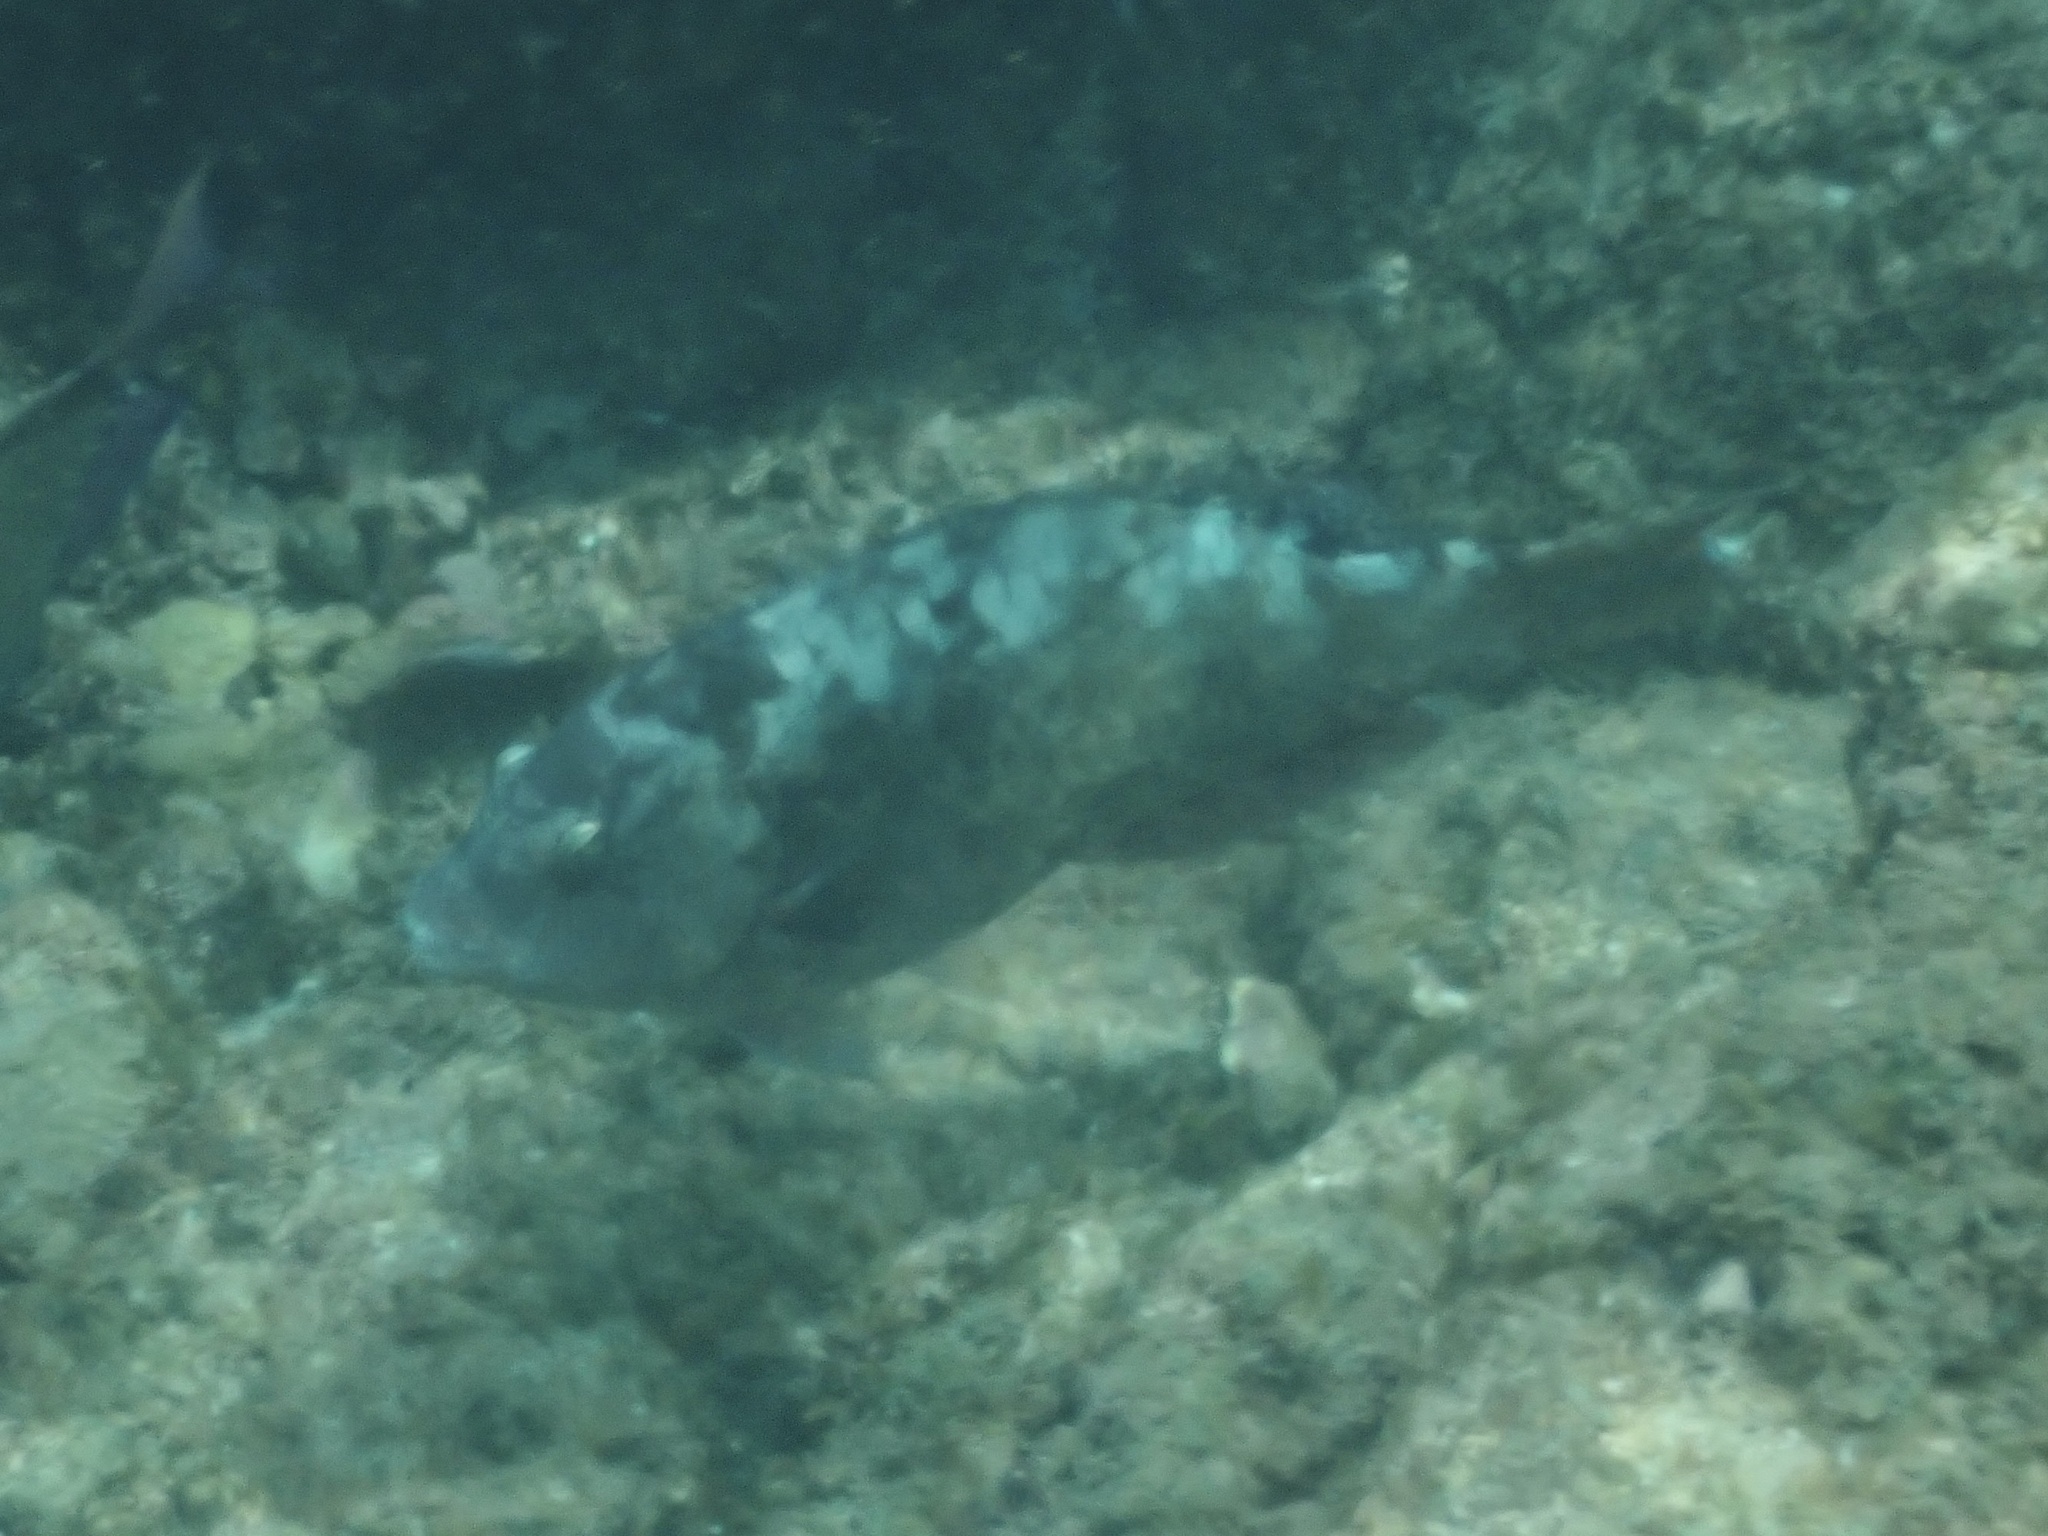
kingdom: Animalia
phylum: Chordata
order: Perciformes
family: Scaridae
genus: Calotomus
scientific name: Calotomus carolinus
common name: Bucktooth
